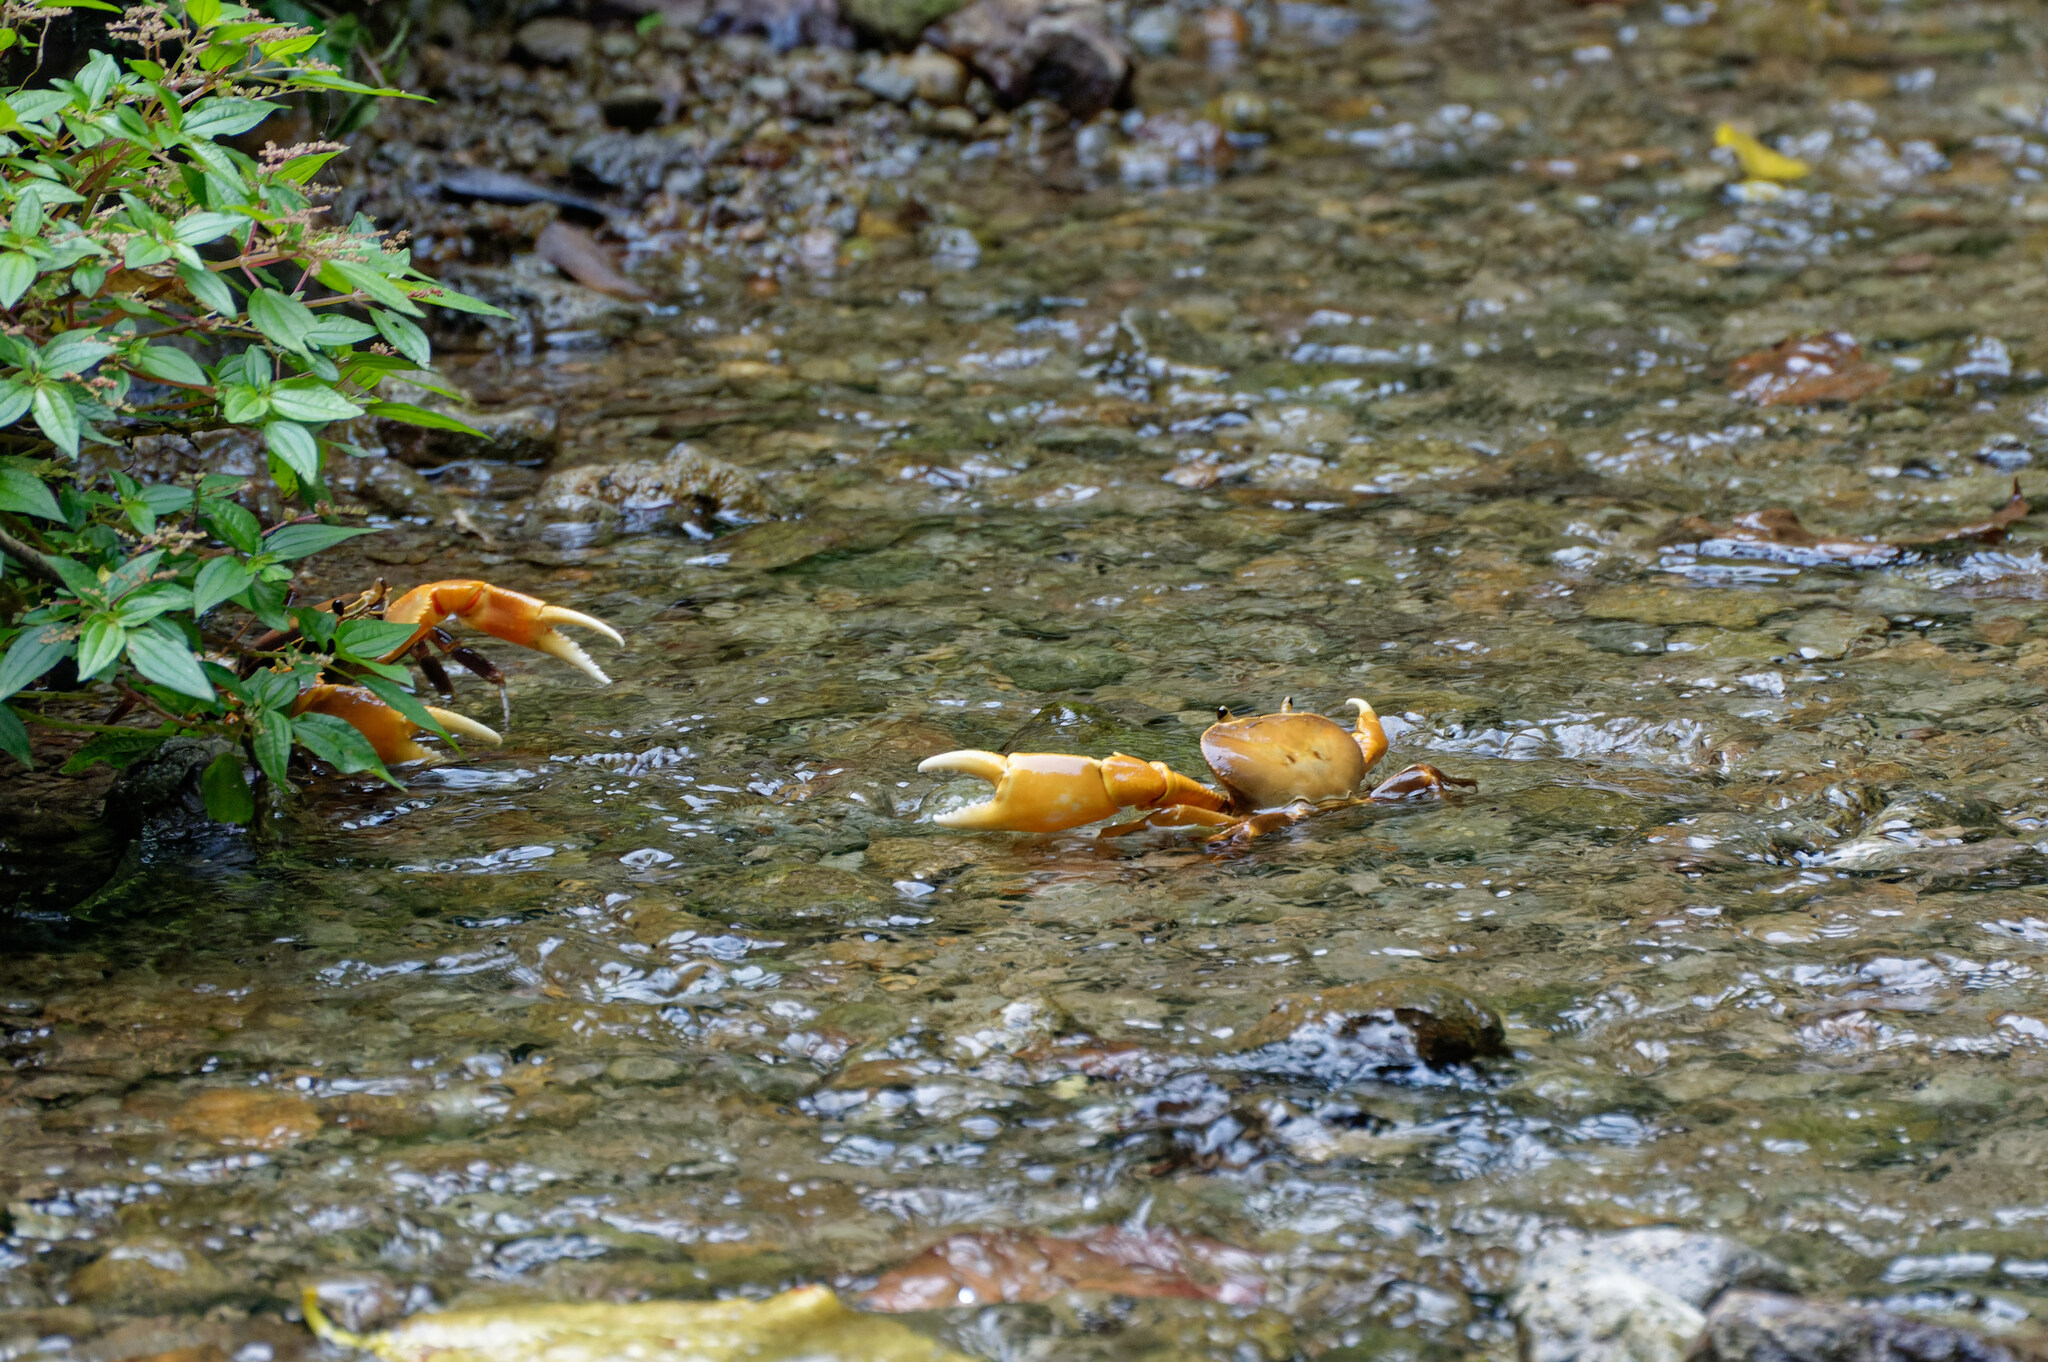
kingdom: Animalia
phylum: Arthropoda
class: Malacostraca
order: Decapoda
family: Pseudothelphusidae
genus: Guinotia
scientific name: Guinotia dentata
